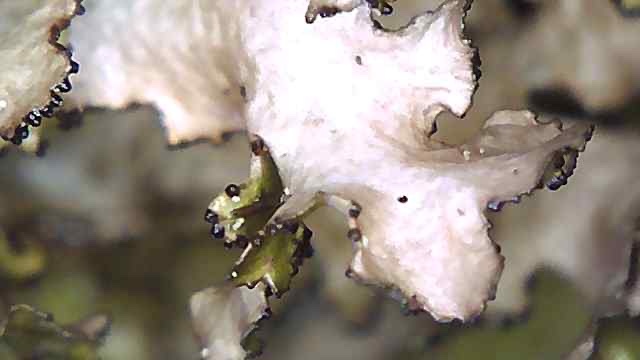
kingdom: Fungi
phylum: Ascomycota
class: Lecanoromycetes
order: Lecanorales
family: Parmeliaceae
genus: Nephromopsis
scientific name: Nephromopsis orbata
